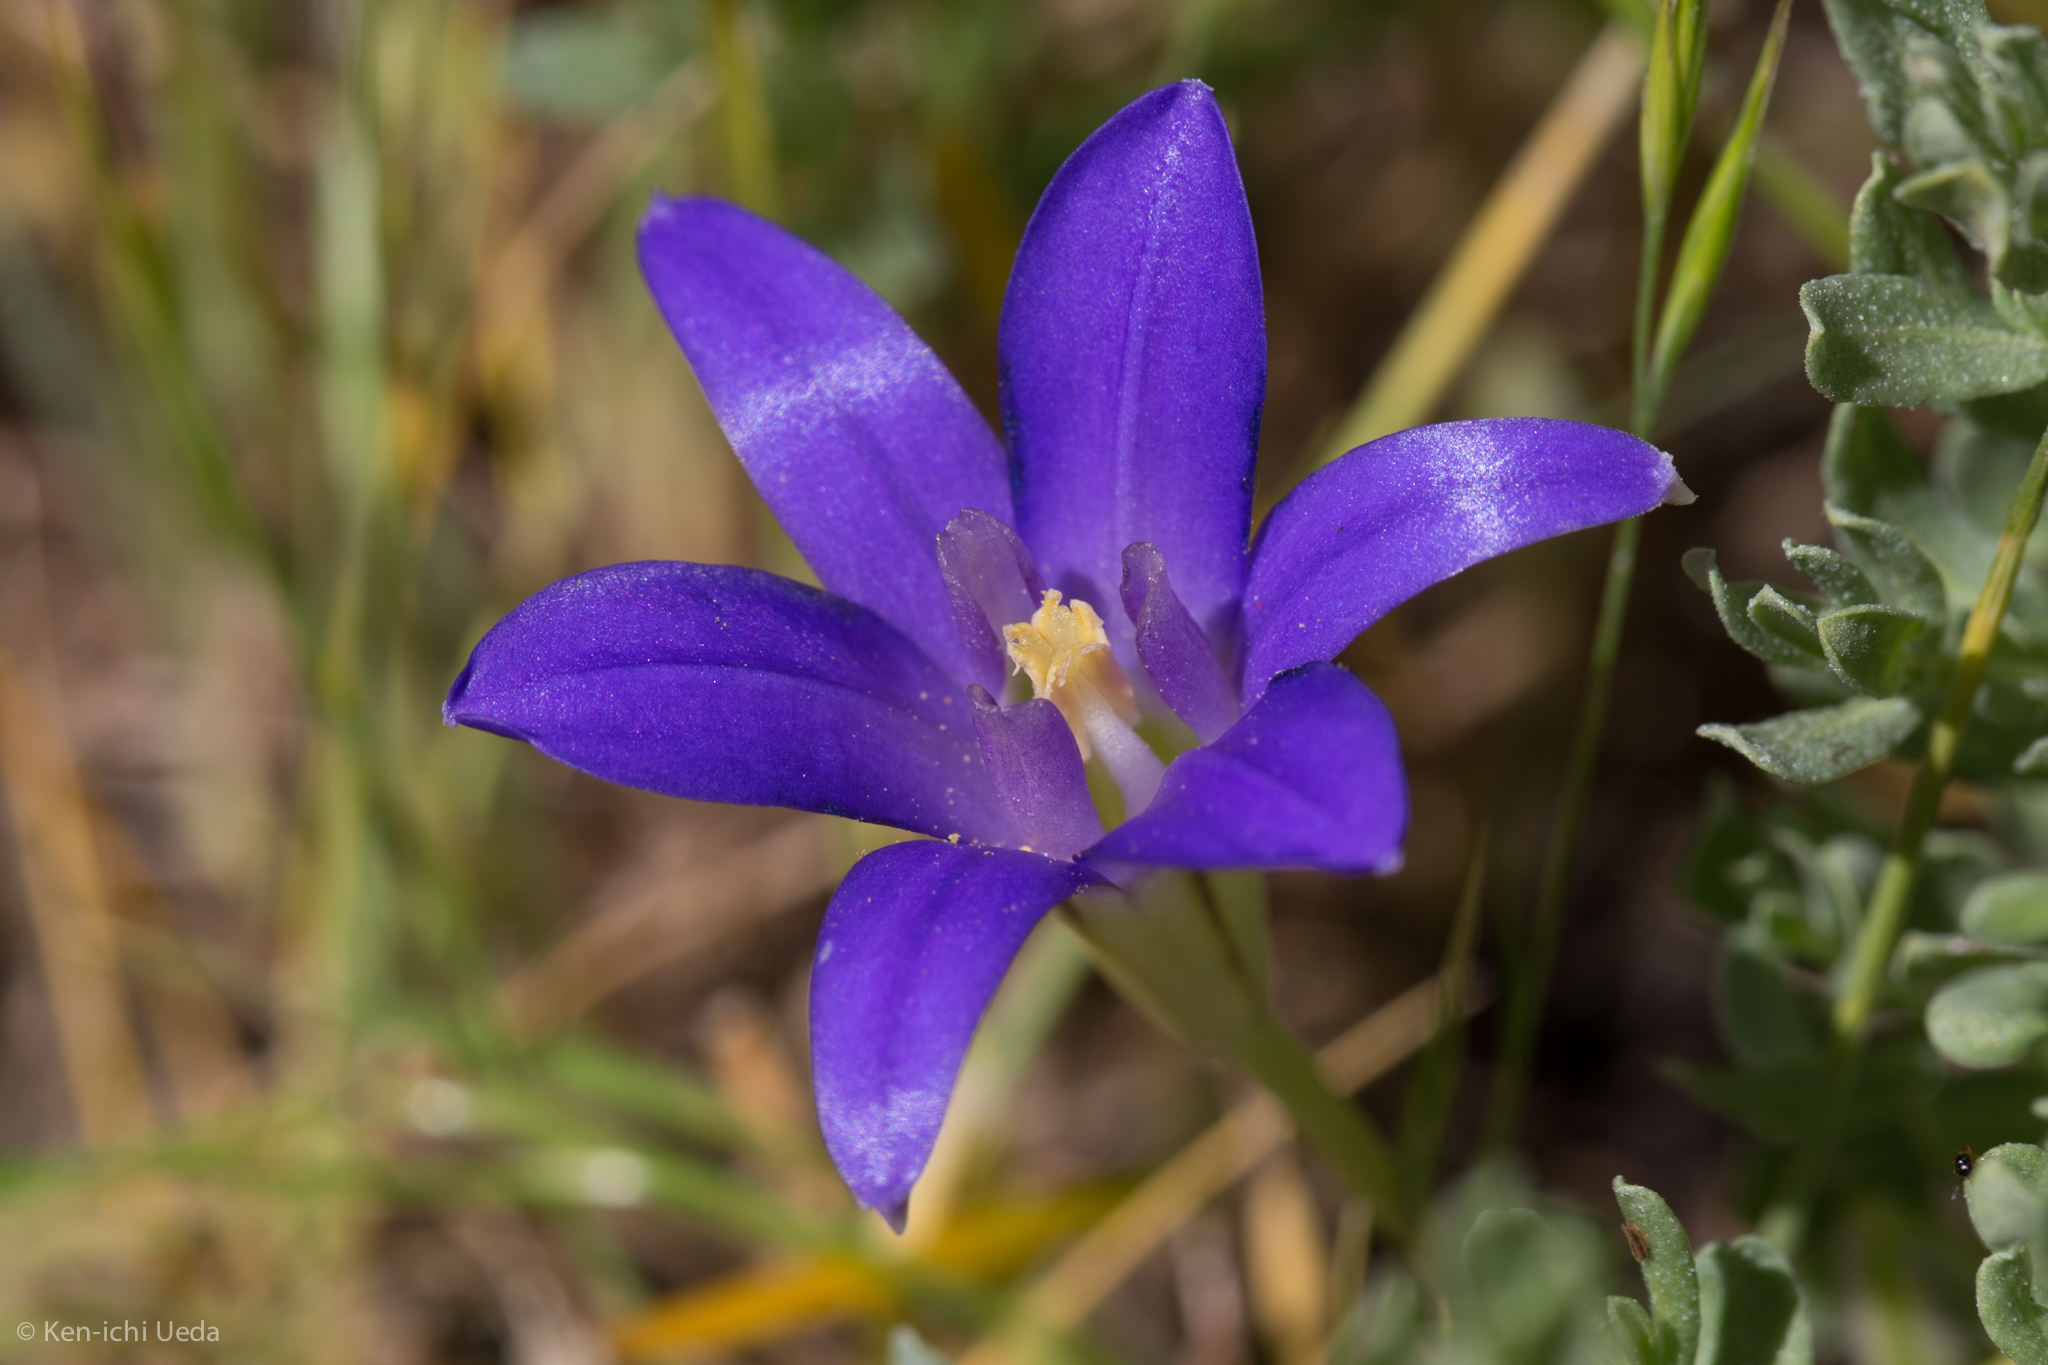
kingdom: Plantae
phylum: Tracheophyta
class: Liliopsida
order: Asparagales
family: Asparagaceae
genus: Brodiaea
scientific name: Brodiaea terrestris
